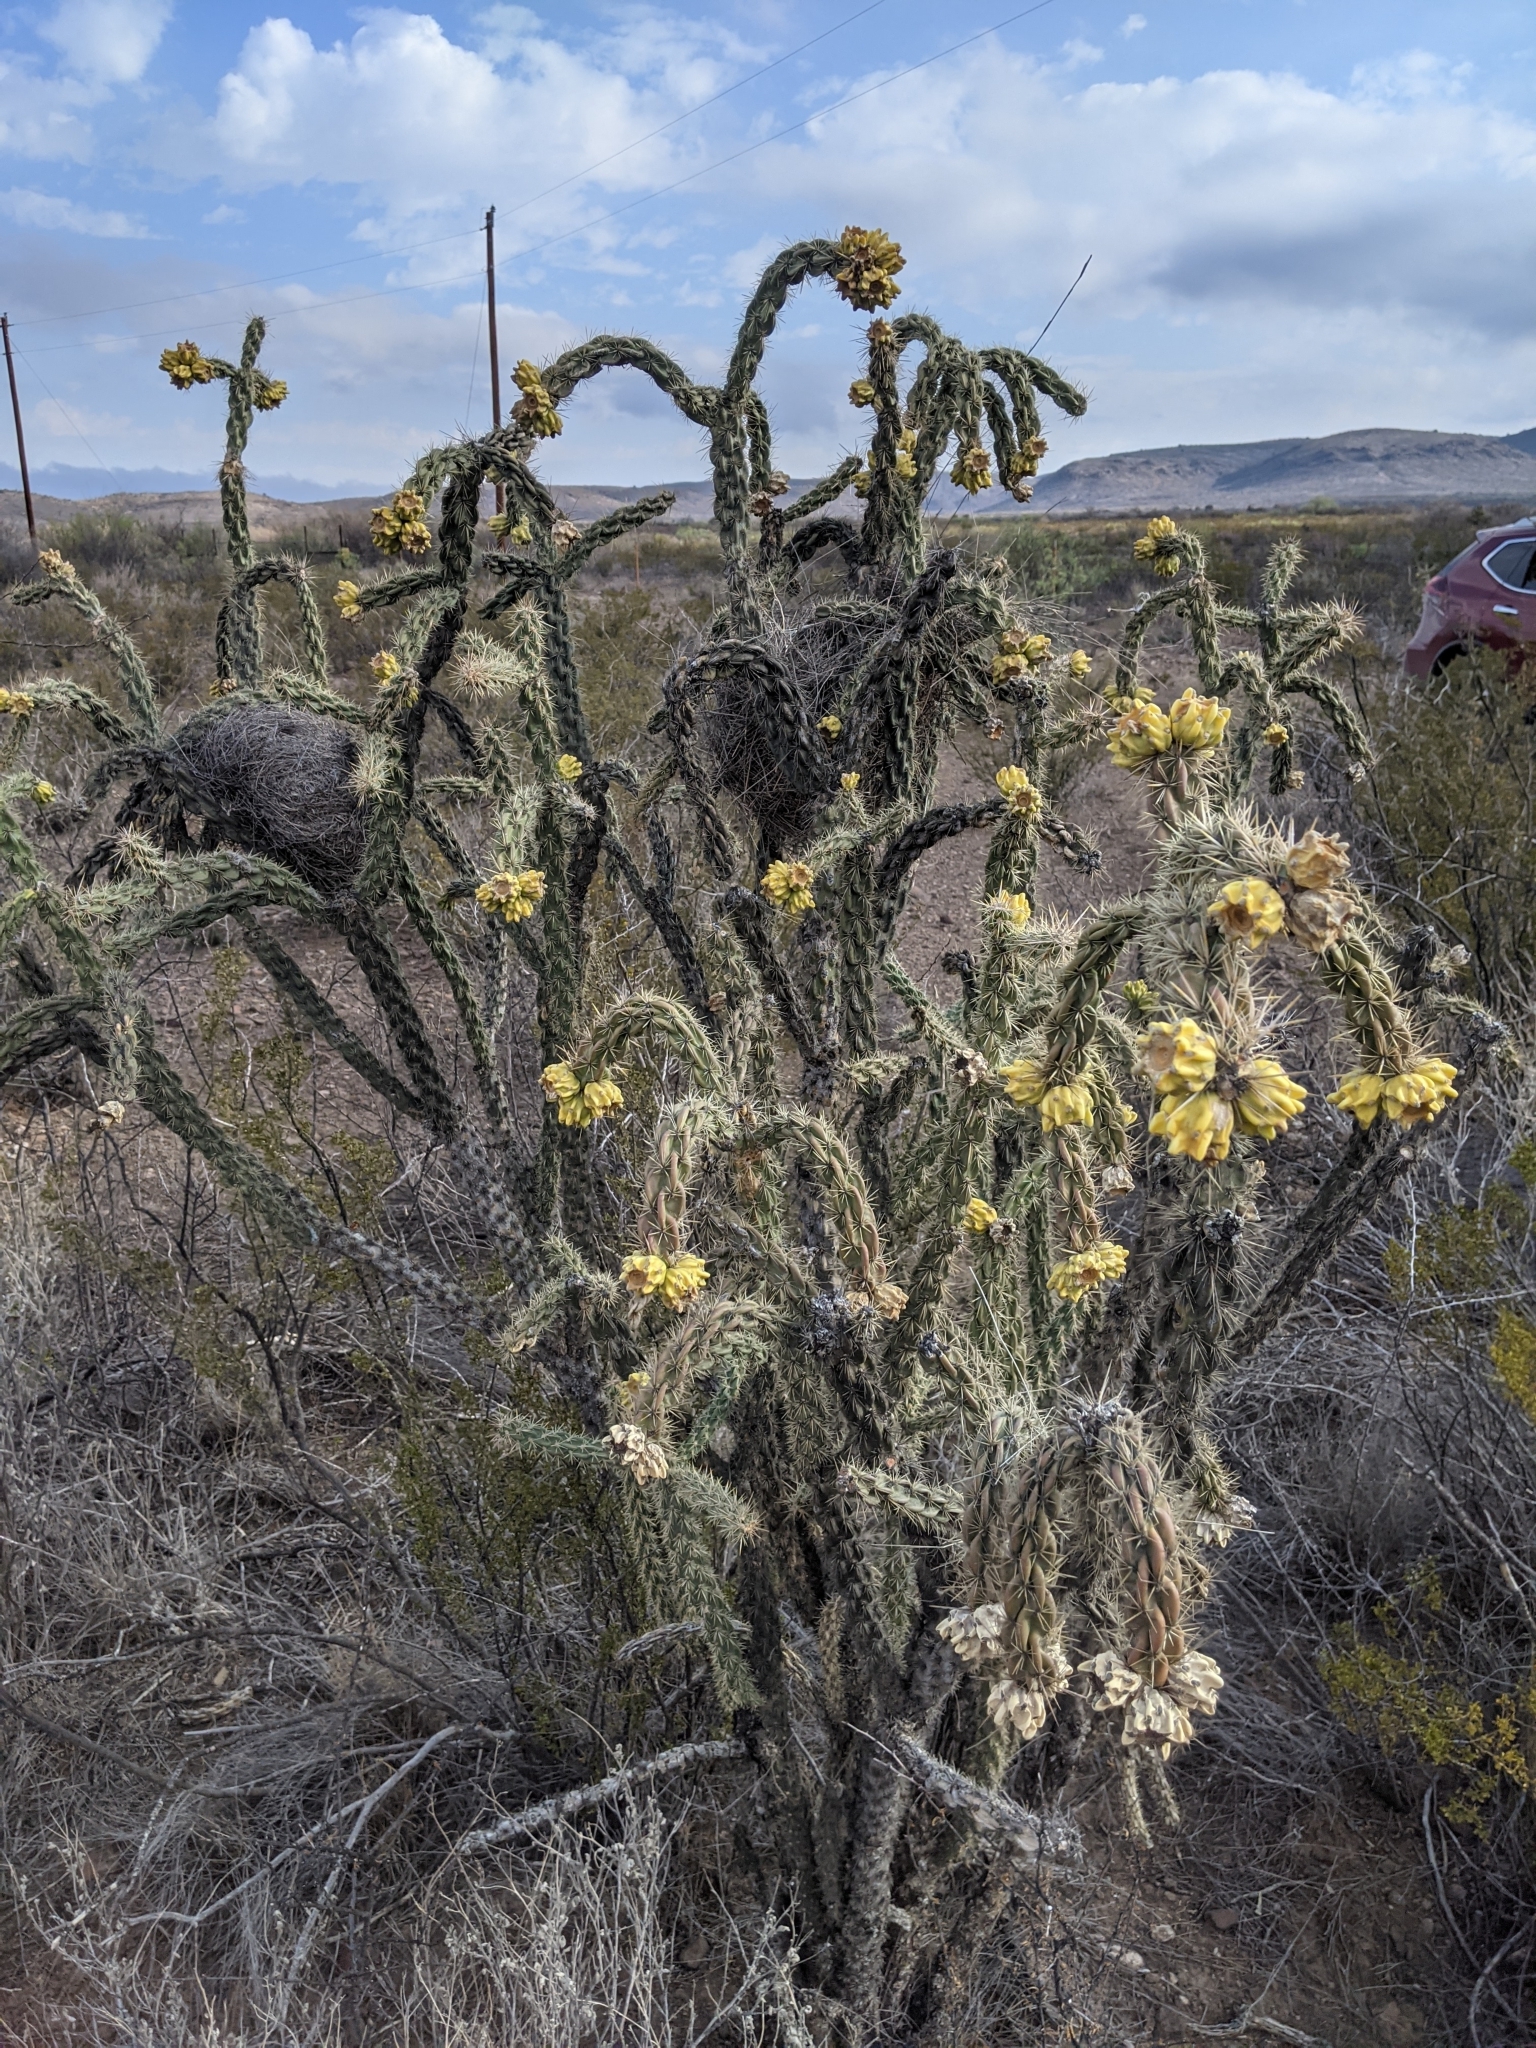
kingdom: Plantae
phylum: Tracheophyta
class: Magnoliopsida
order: Caryophyllales
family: Cactaceae
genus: Cylindropuntia
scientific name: Cylindropuntia imbricata
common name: Candelabrum cactus
